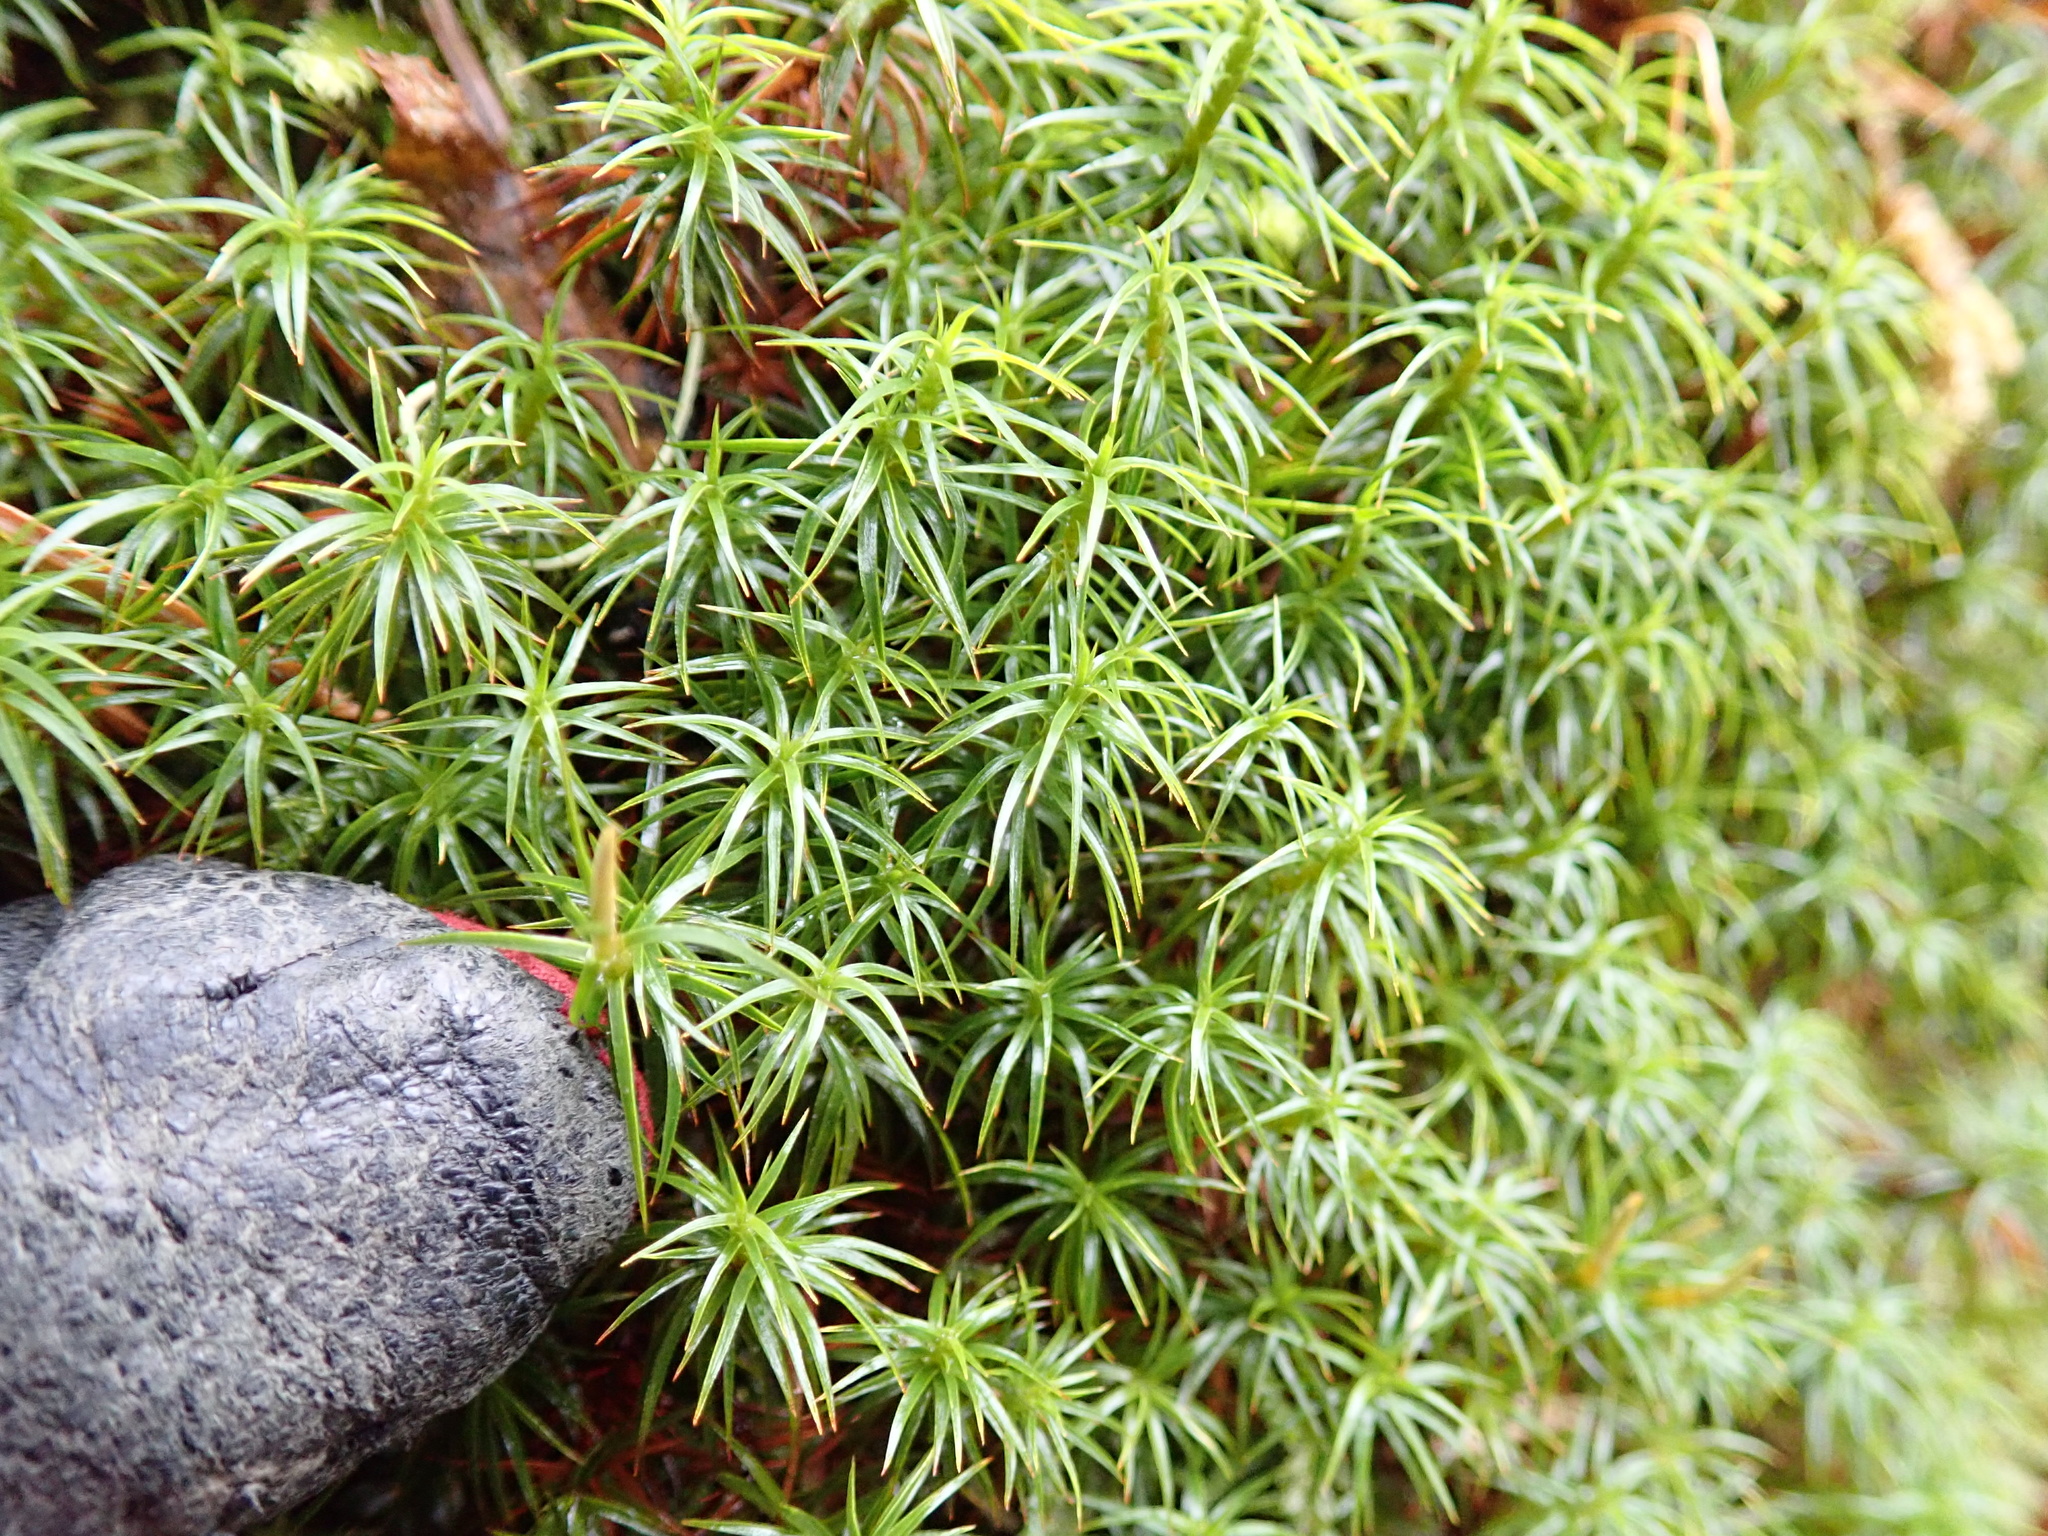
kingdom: Plantae
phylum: Bryophyta
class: Polytrichopsida
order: Polytrichales
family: Polytrichaceae
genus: Polytrichastrum
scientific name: Polytrichastrum alpinum
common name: Alpine haircap
